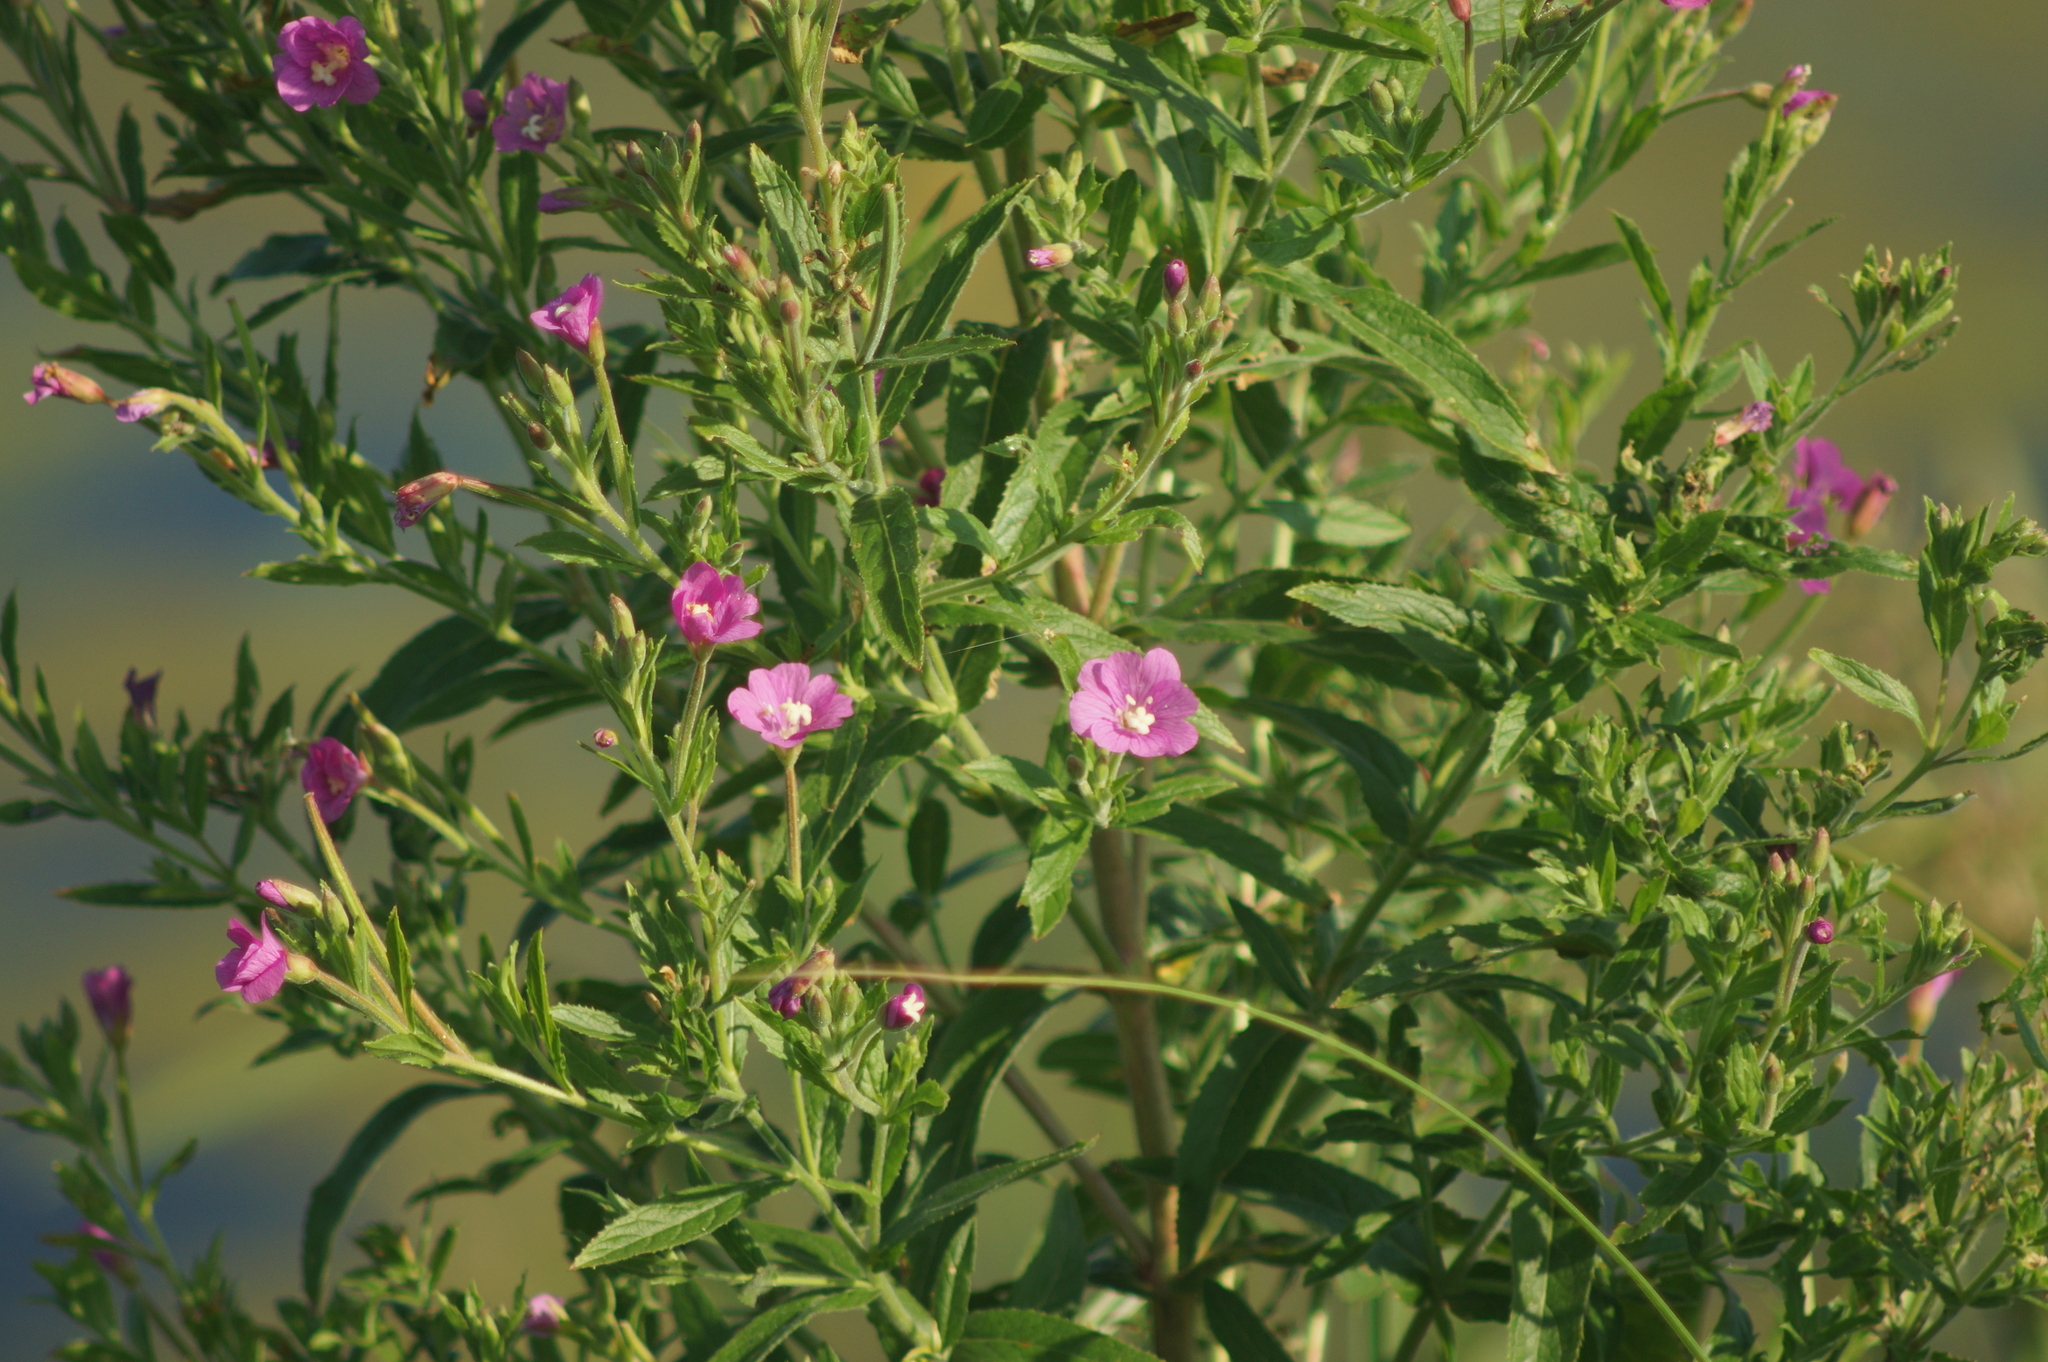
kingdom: Plantae
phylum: Tracheophyta
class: Magnoliopsida
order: Myrtales
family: Onagraceae
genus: Epilobium
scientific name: Epilobium hirsutum
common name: Great willowherb
